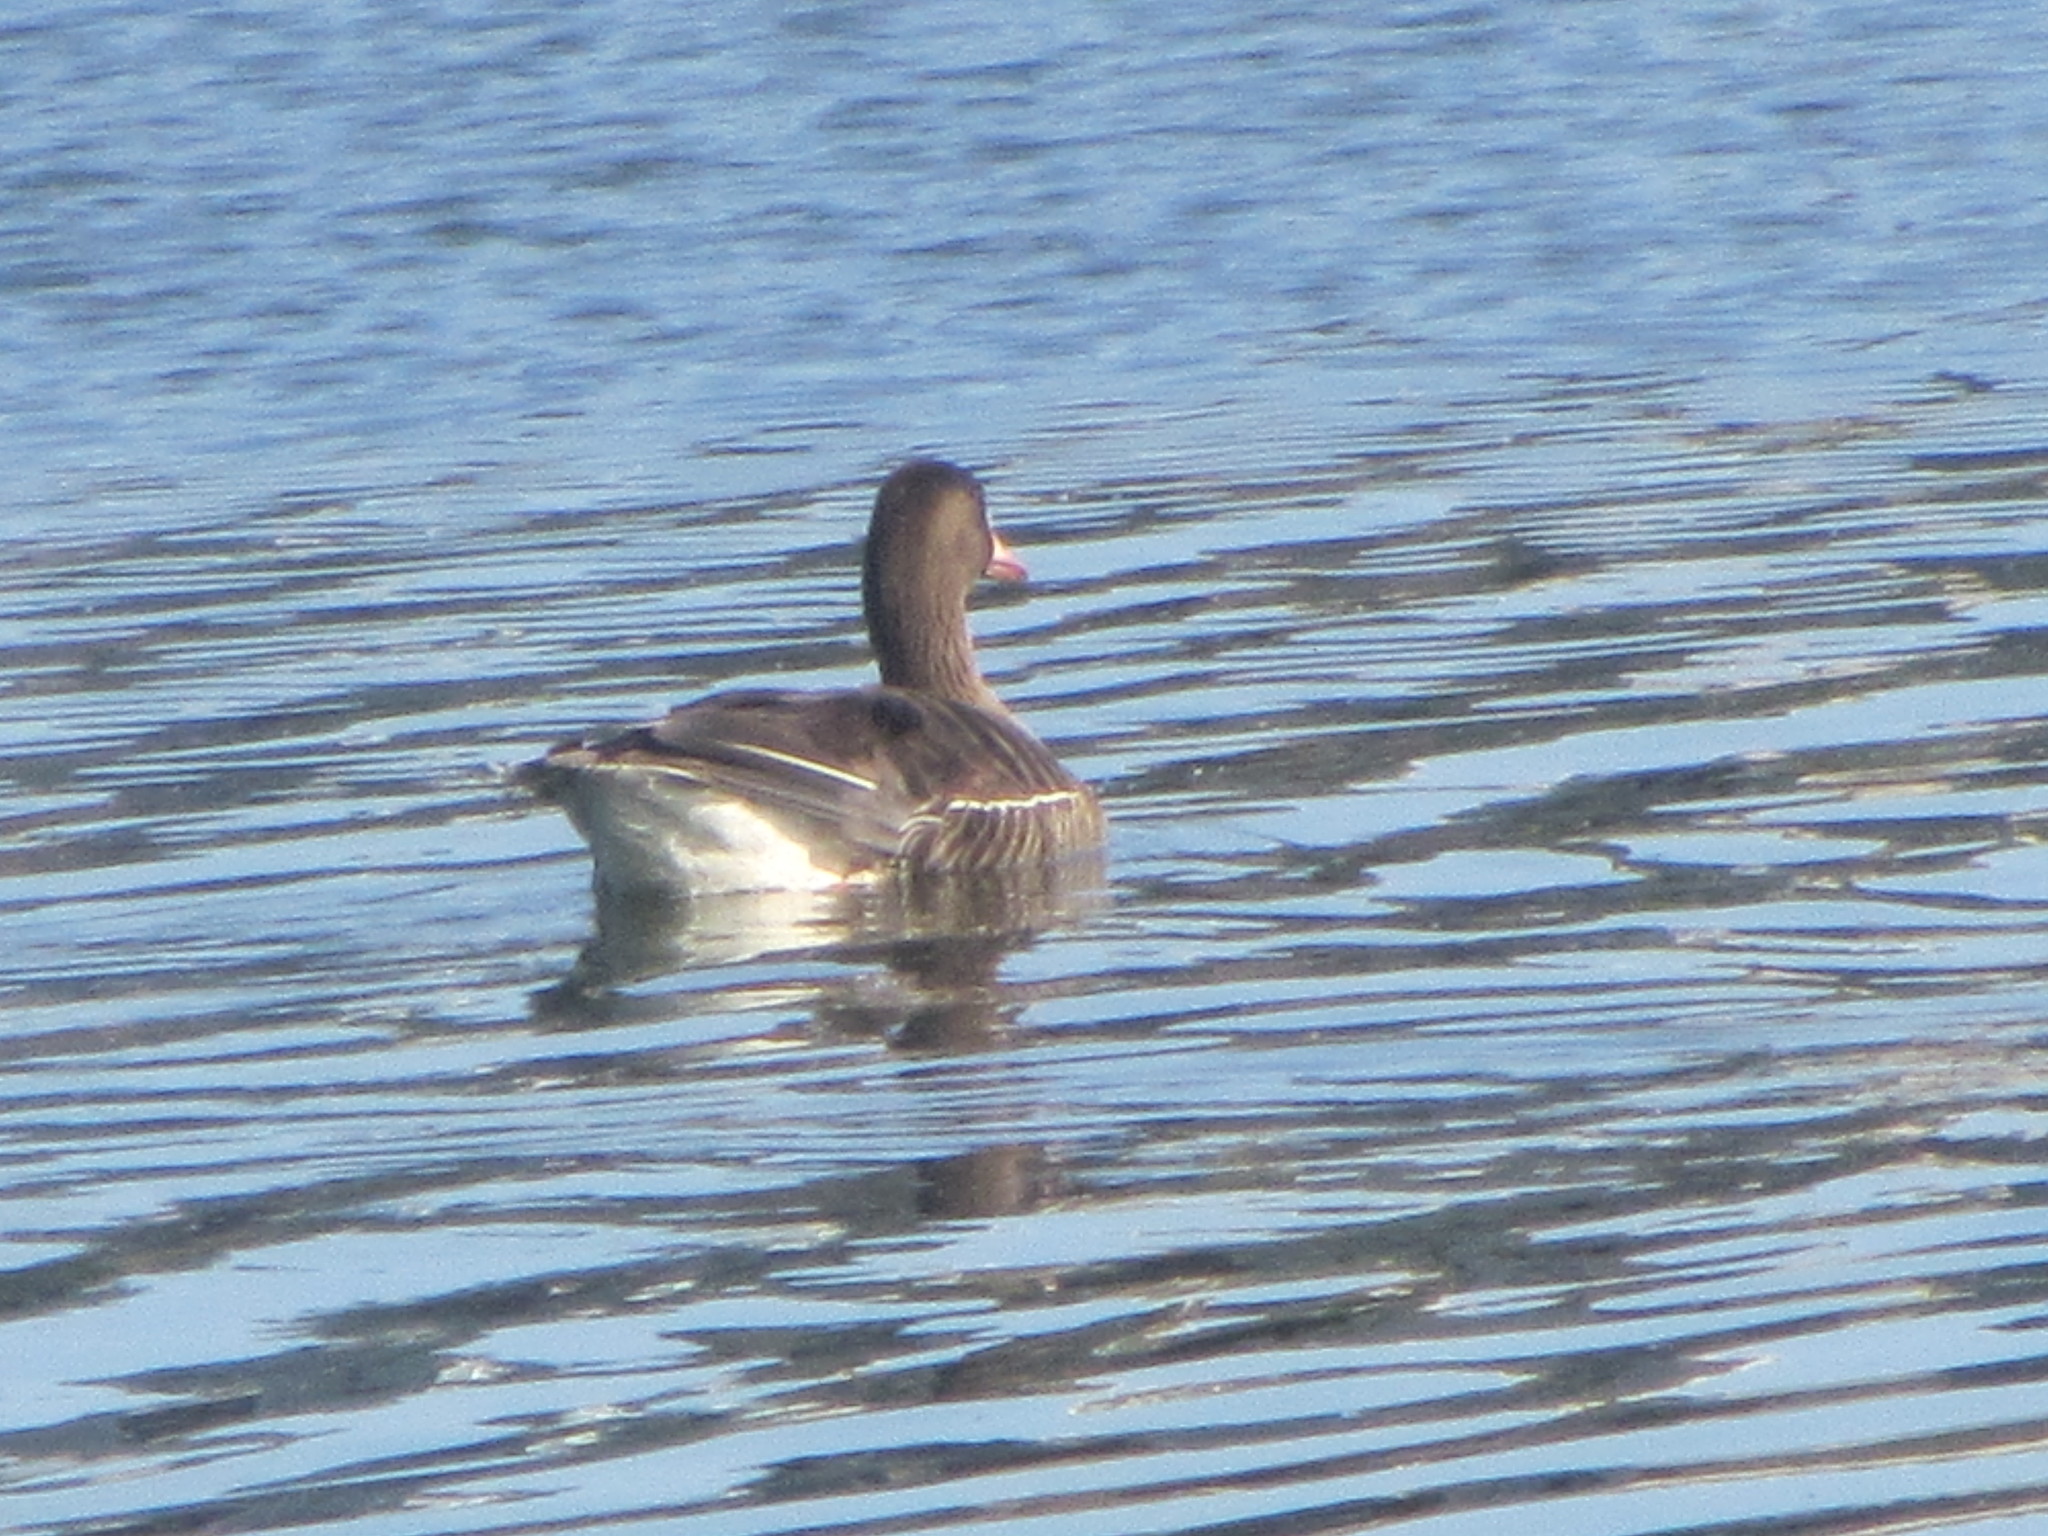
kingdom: Animalia
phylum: Chordata
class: Aves
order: Anseriformes
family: Anatidae
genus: Anser
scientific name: Anser albifrons
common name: Greater white-fronted goose
